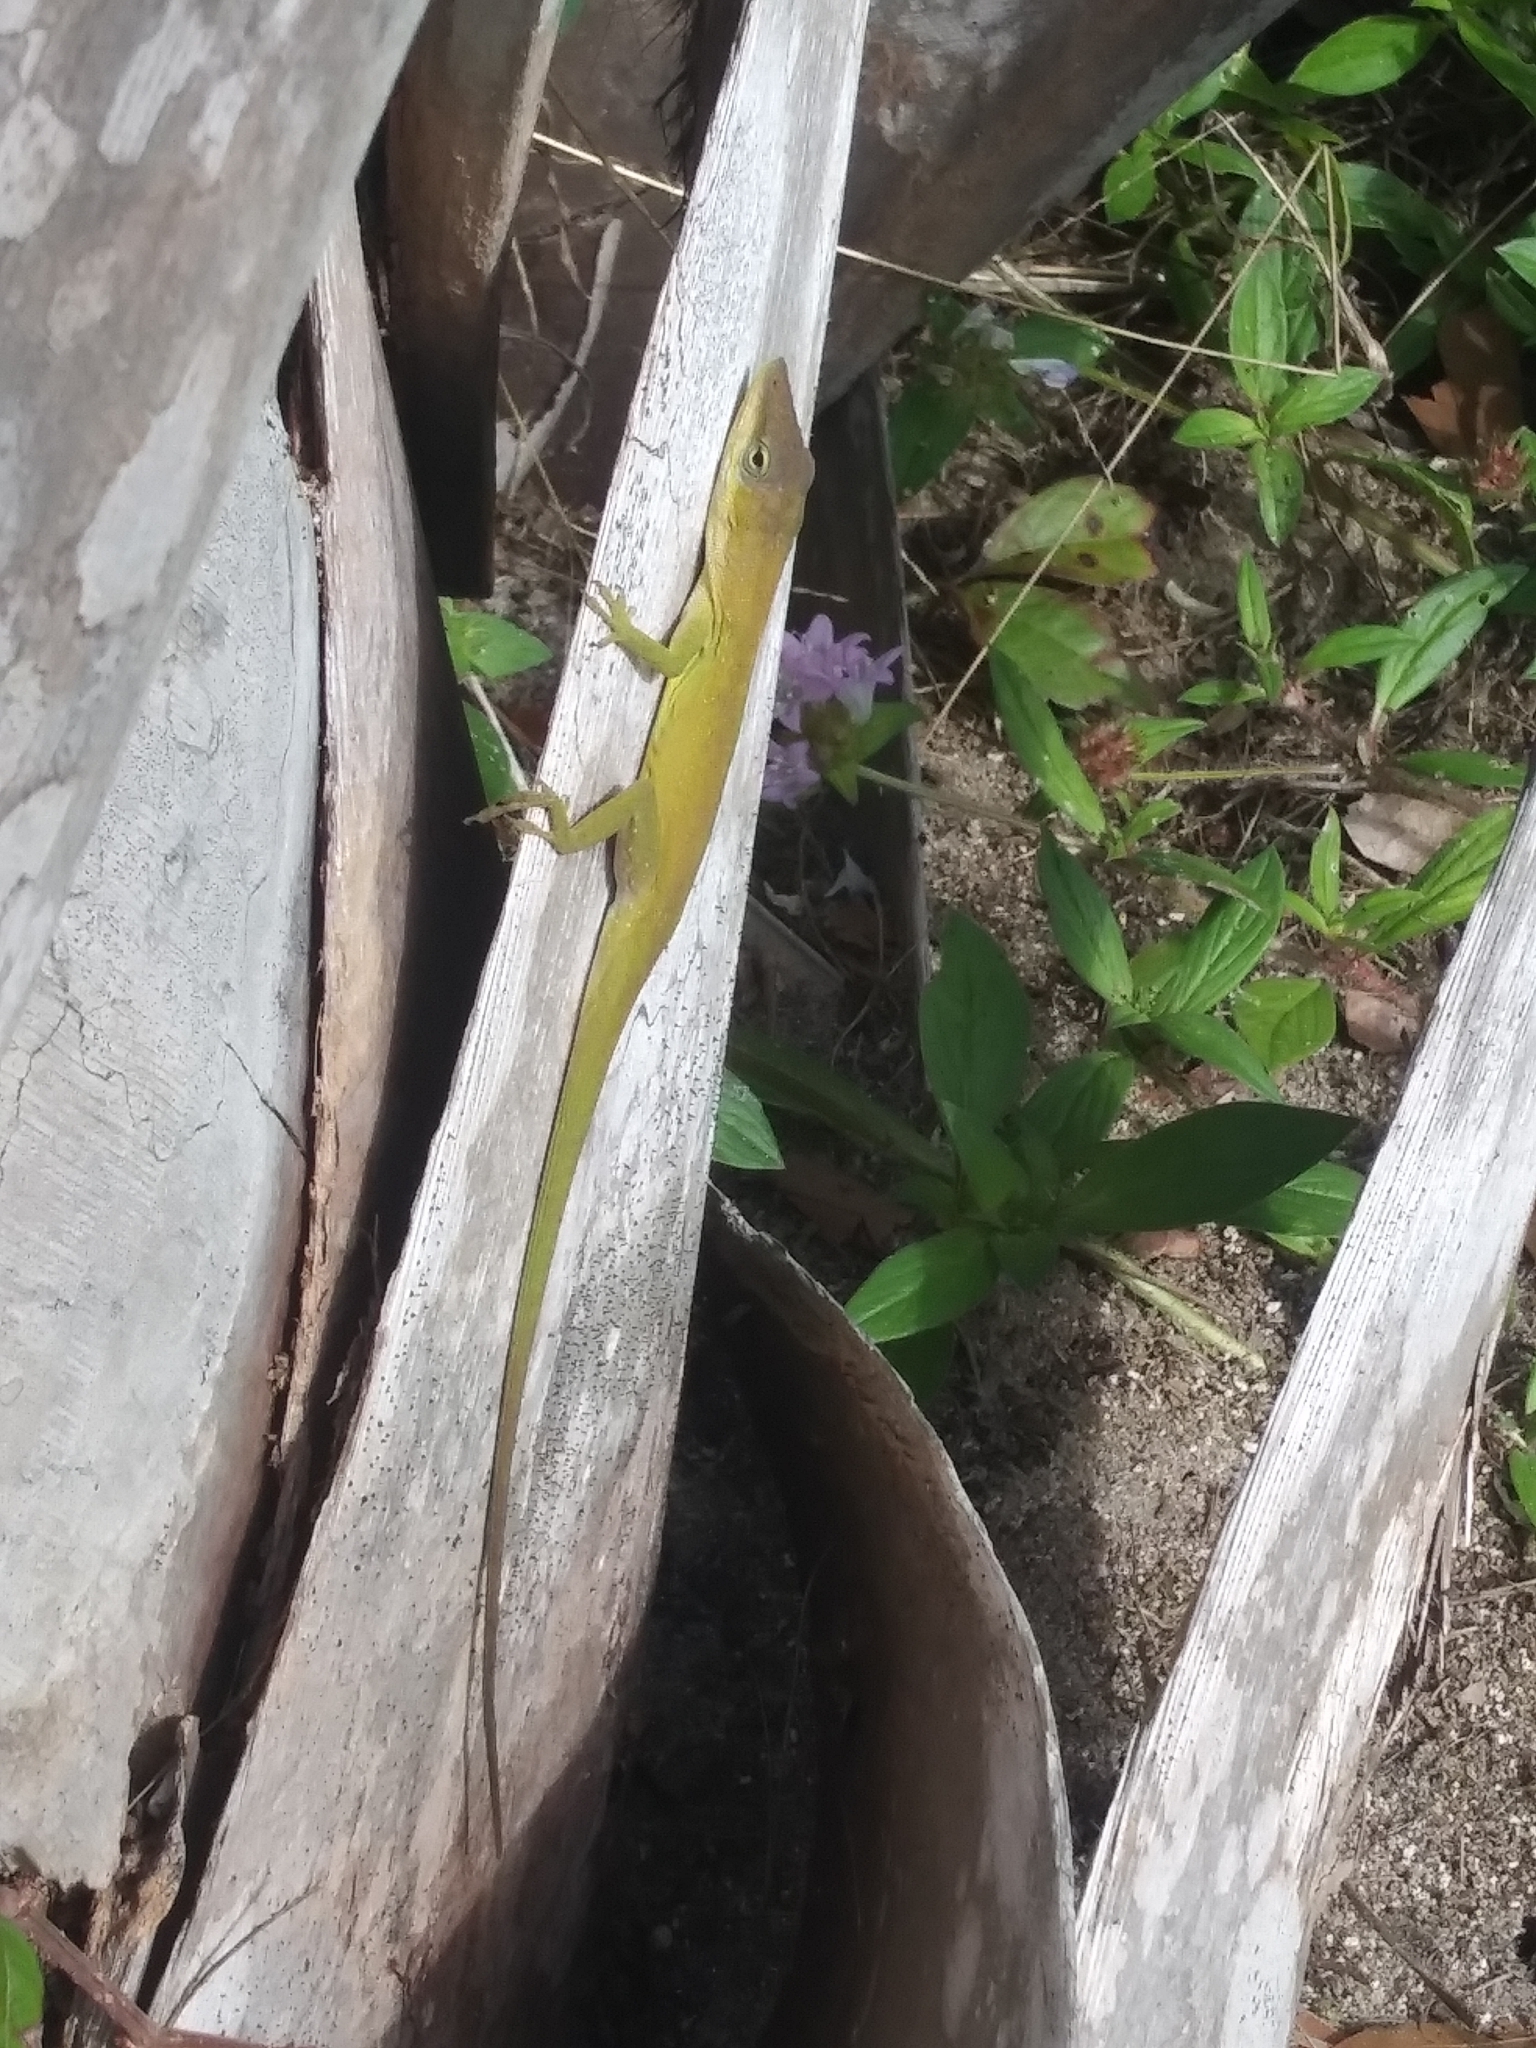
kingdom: Animalia
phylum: Chordata
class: Squamata
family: Dactyloidae
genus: Anolis
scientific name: Anolis carolinensis
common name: Green anole
